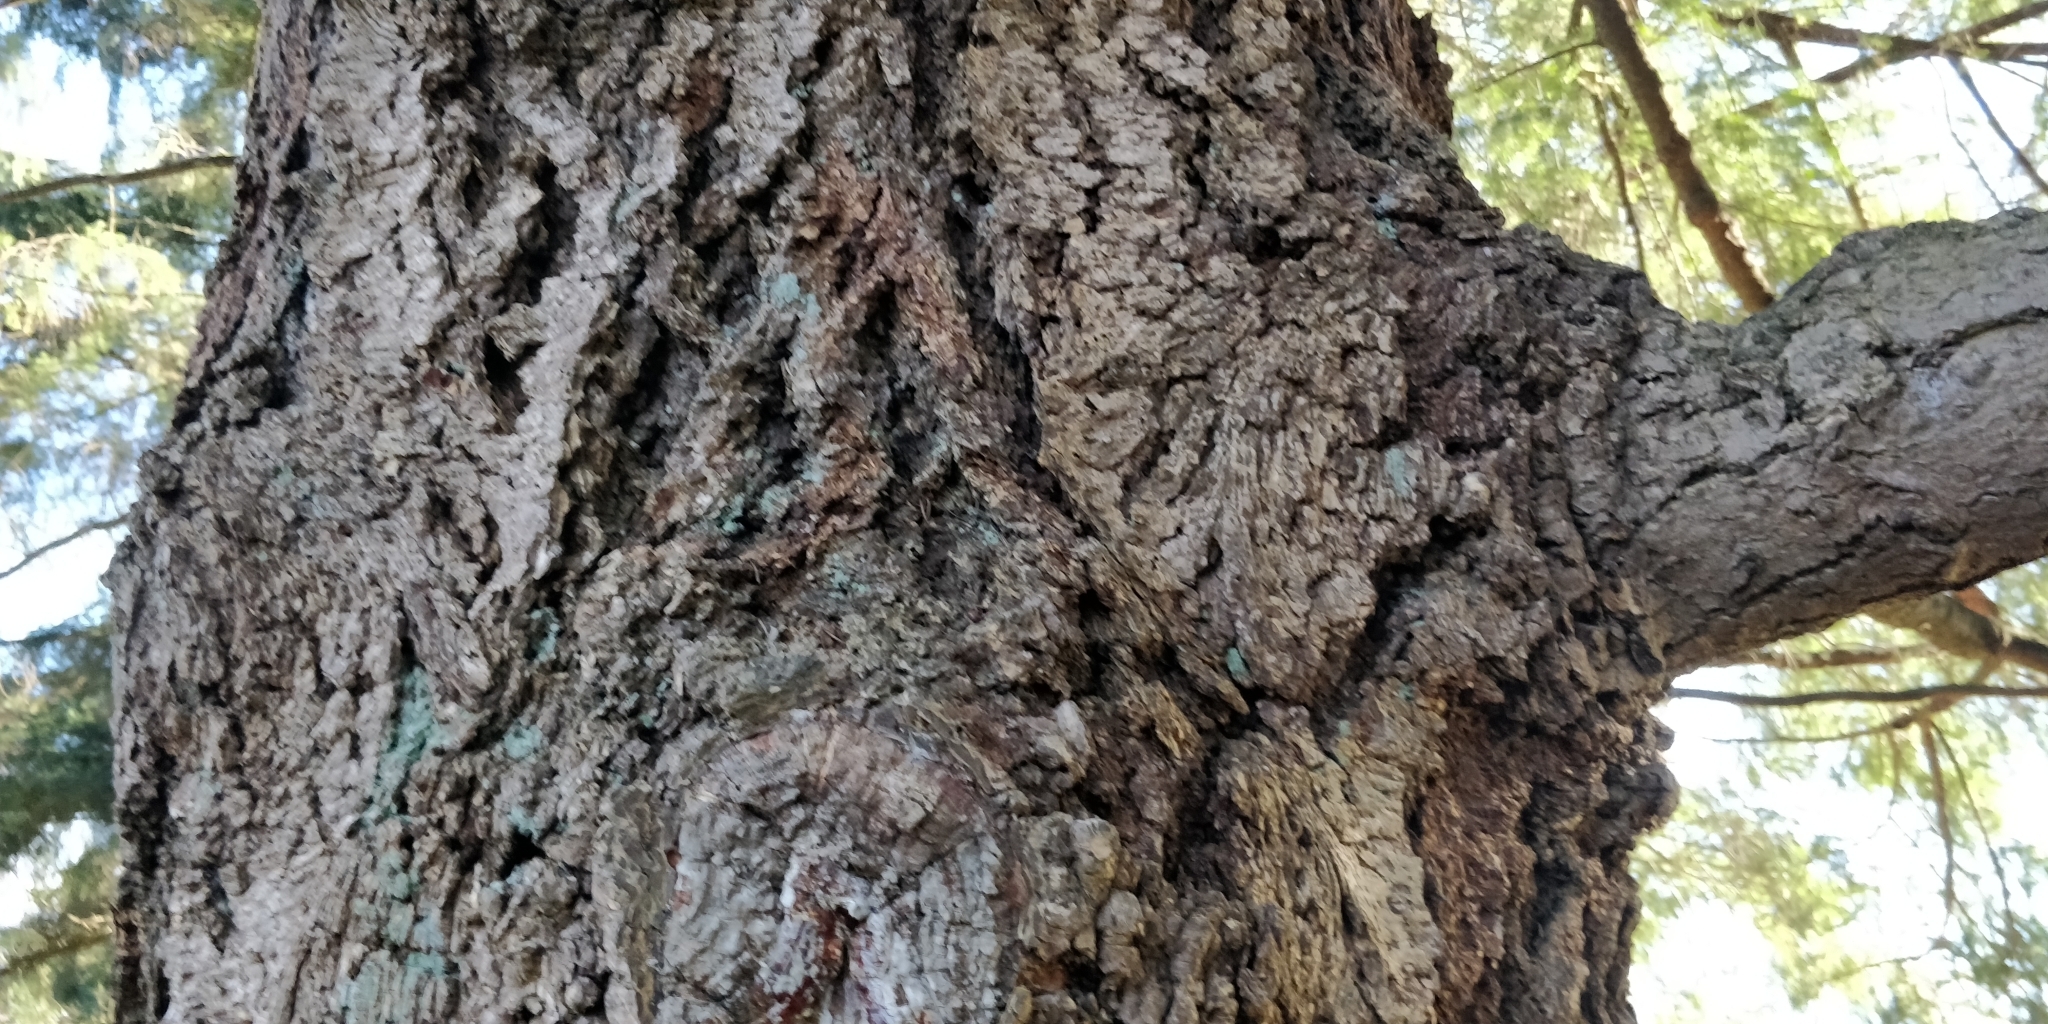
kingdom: Plantae
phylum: Tracheophyta
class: Pinopsida
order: Pinales
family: Pinaceae
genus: Pseudotsuga
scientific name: Pseudotsuga menziesii
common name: Douglas fir
